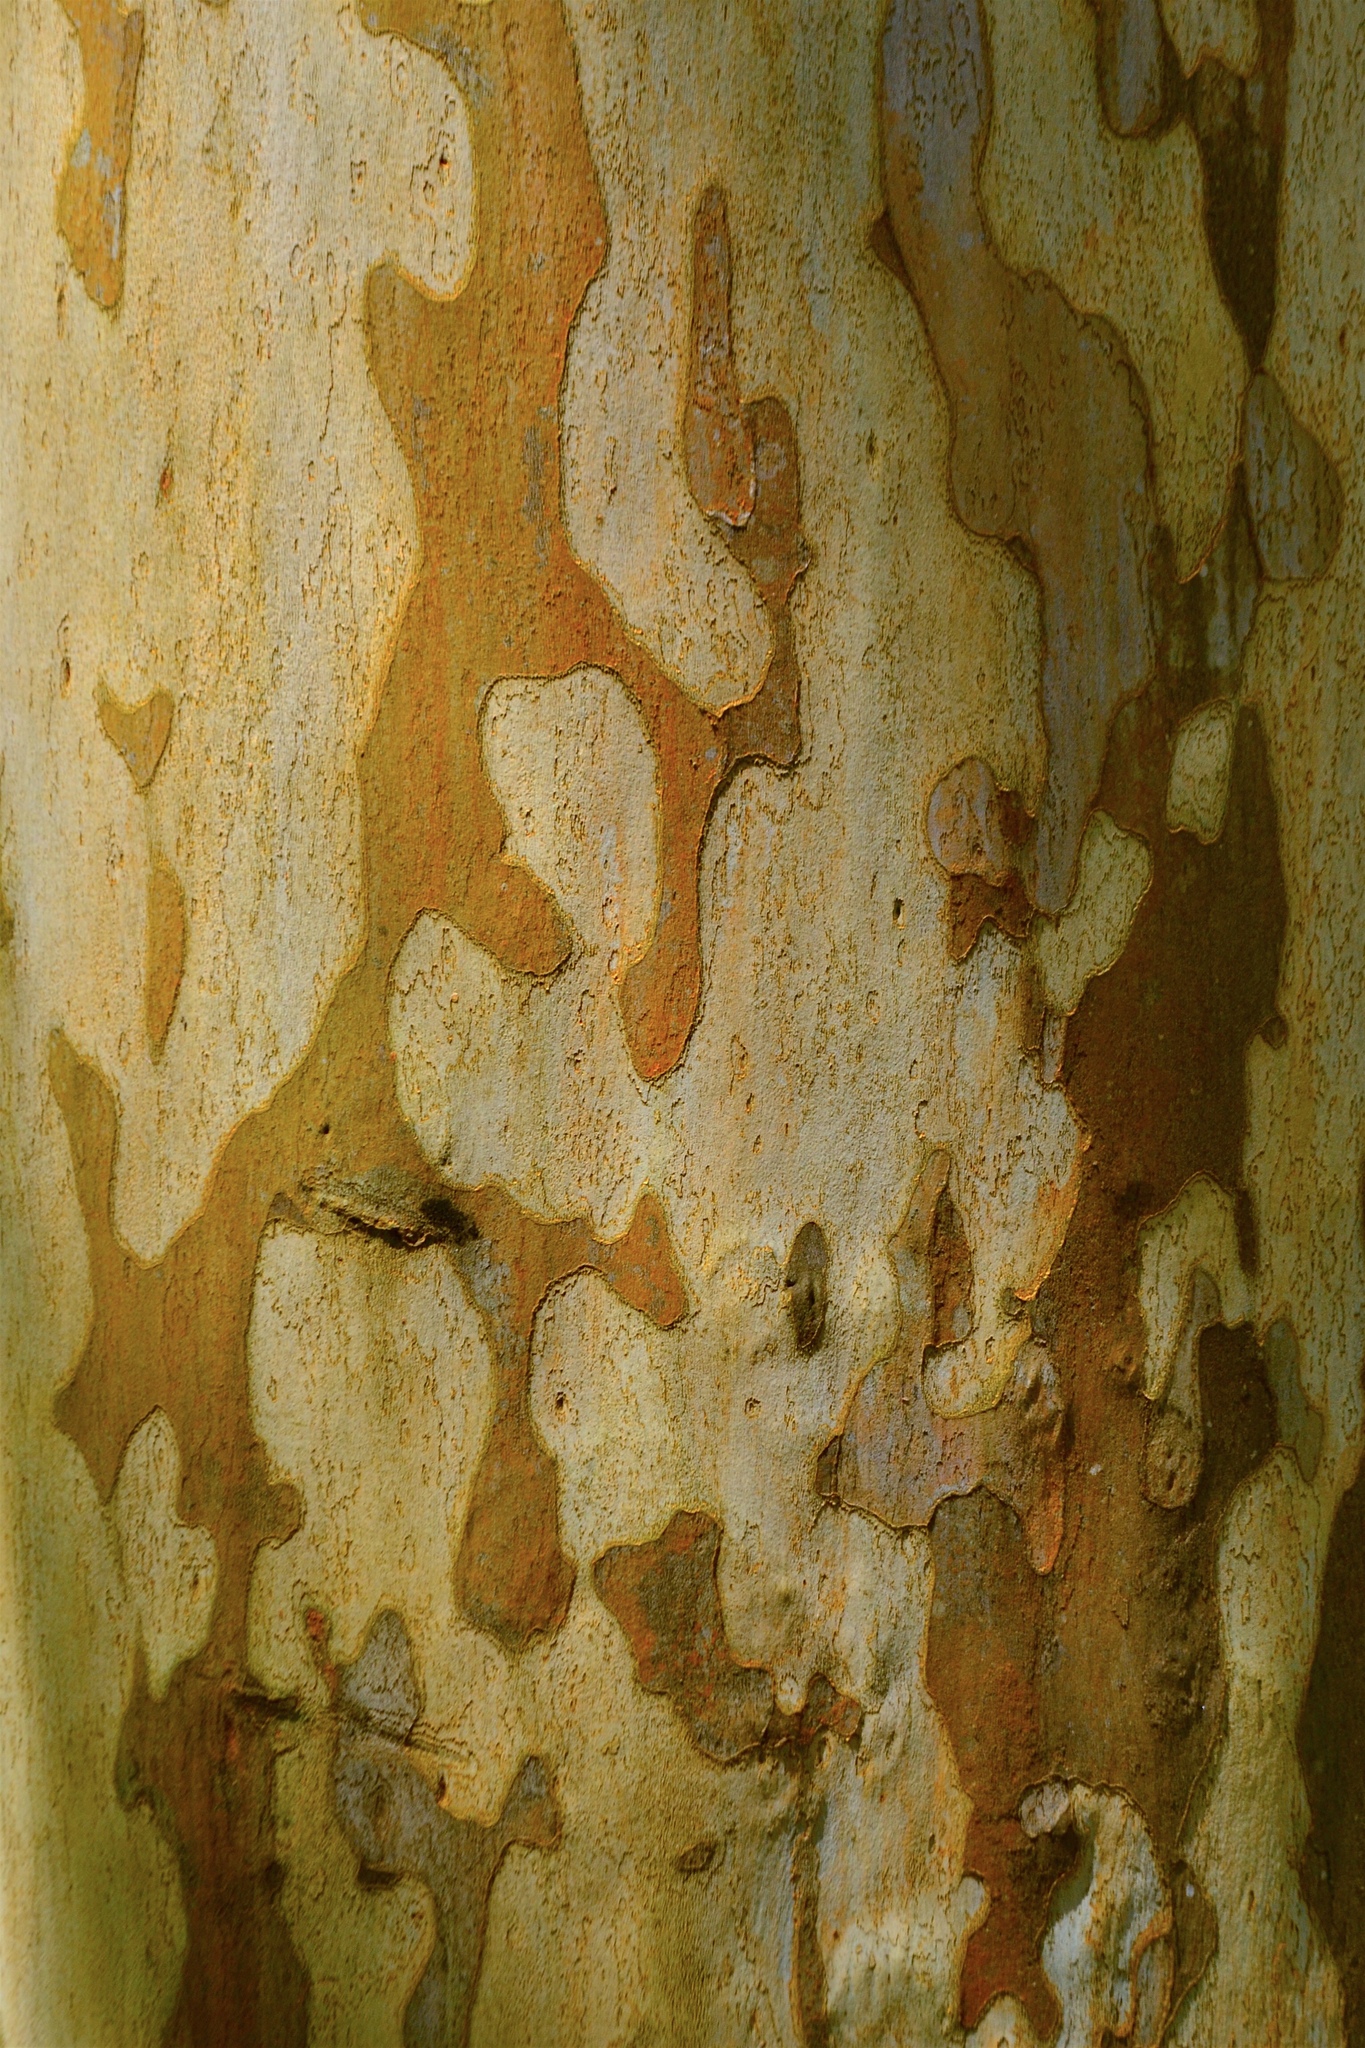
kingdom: Plantae
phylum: Tracheophyta
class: Magnoliopsida
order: Proteales
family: Platanaceae
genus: Platanus
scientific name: Platanus mexicana
